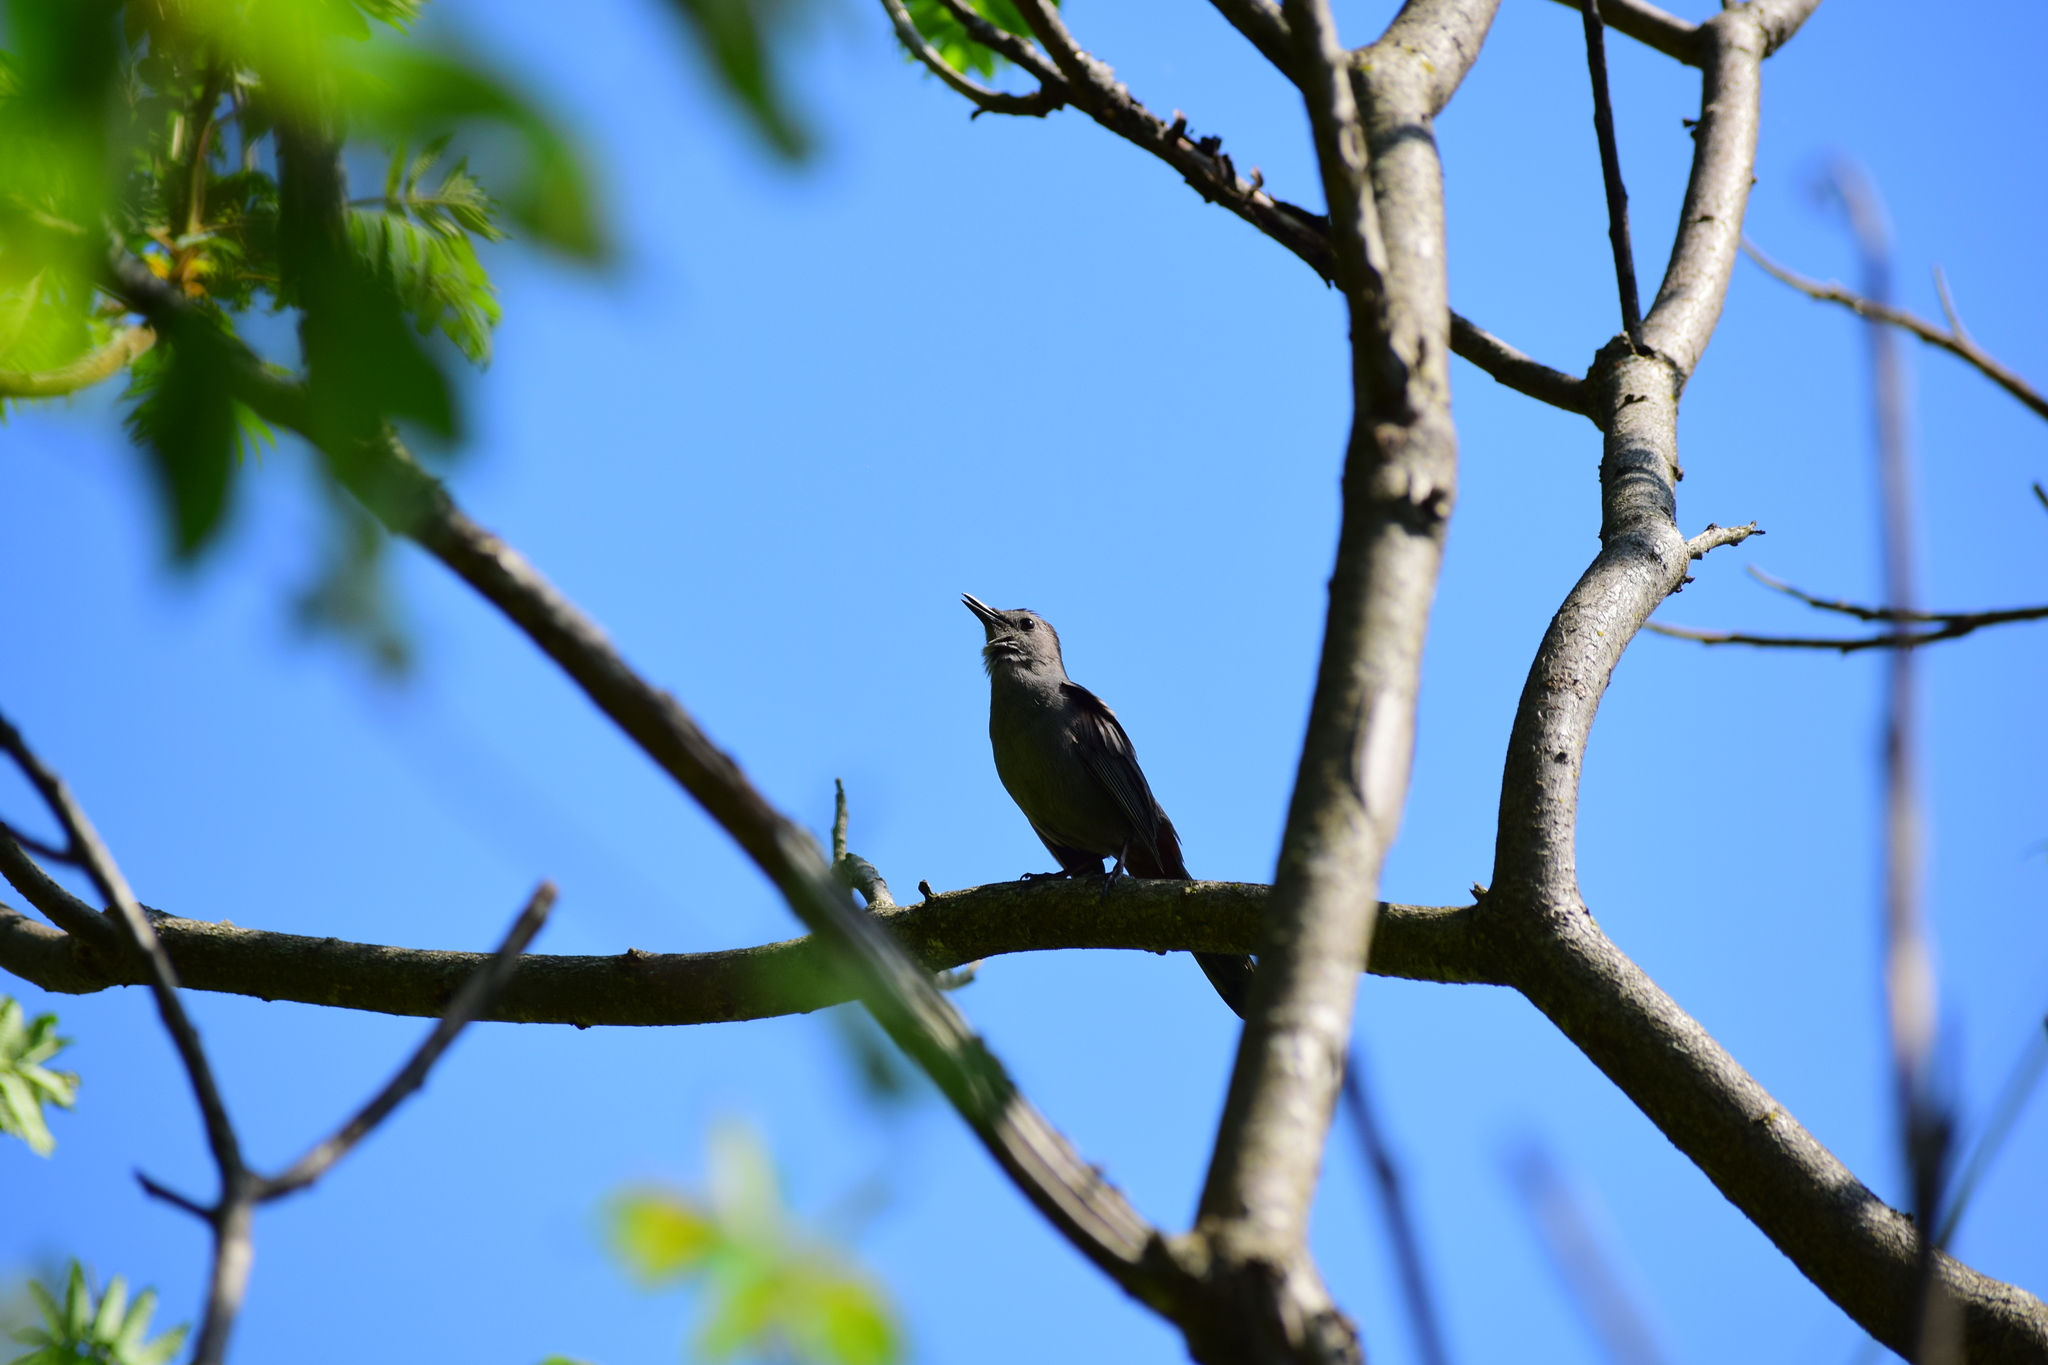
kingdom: Animalia
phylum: Chordata
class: Aves
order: Passeriformes
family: Mimidae
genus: Dumetella
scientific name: Dumetella carolinensis
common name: Gray catbird
